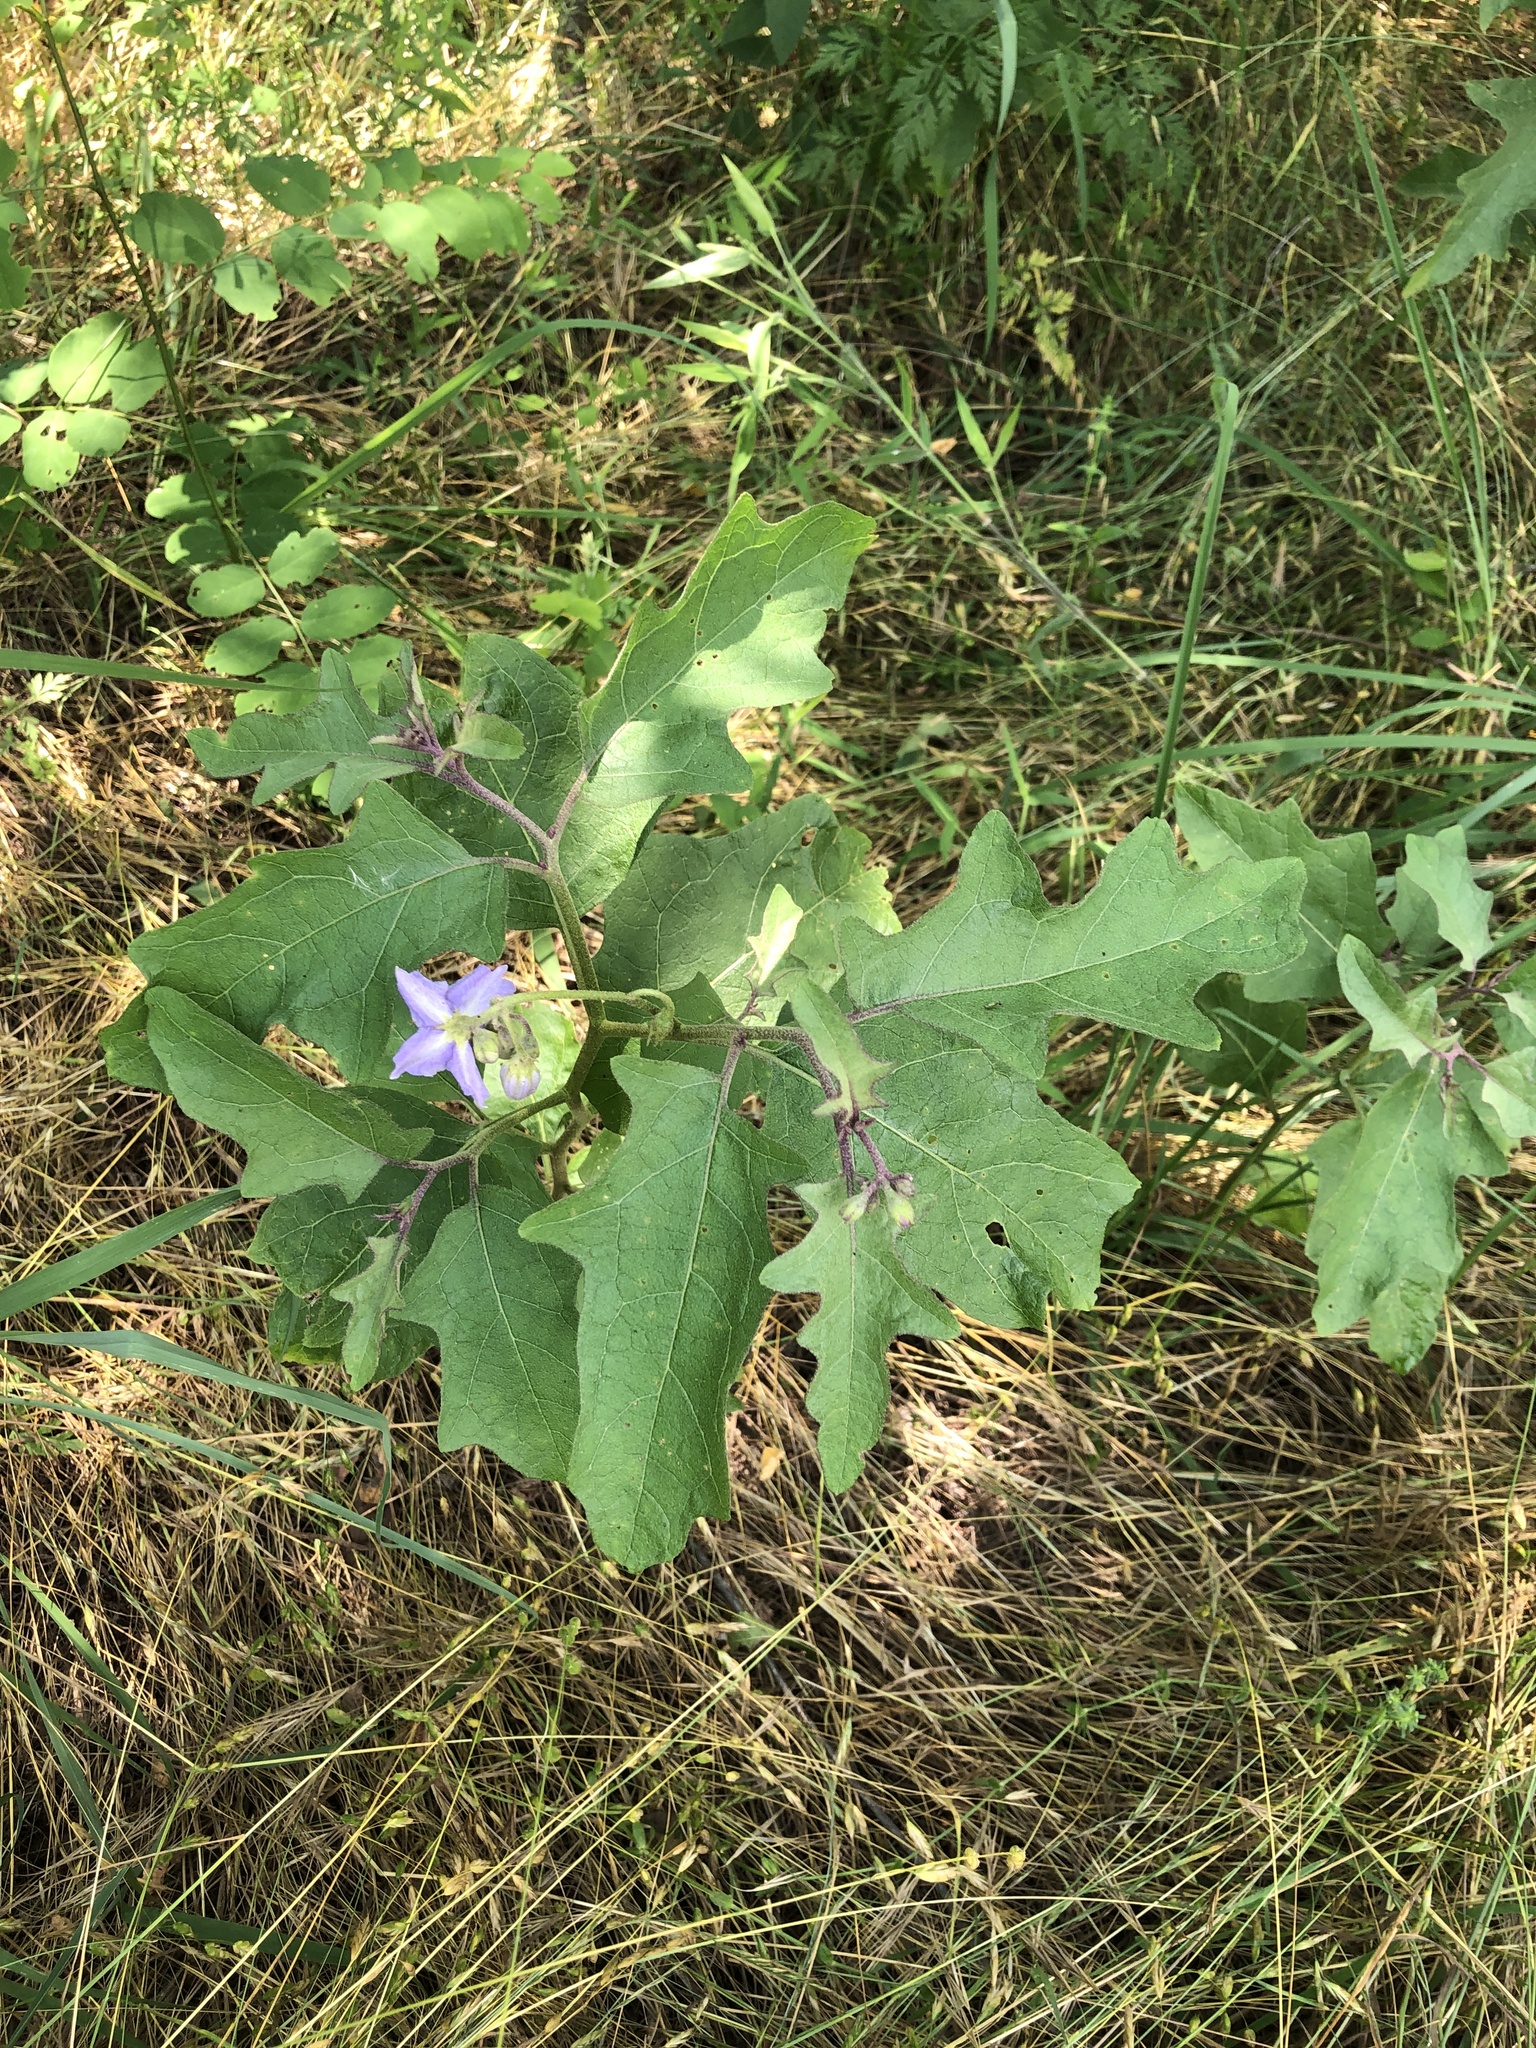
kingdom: Plantae
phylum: Tracheophyta
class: Magnoliopsida
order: Solanales
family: Solanaceae
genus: Solanum
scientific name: Solanum dimidiatum
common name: Carolina horse-nettle
